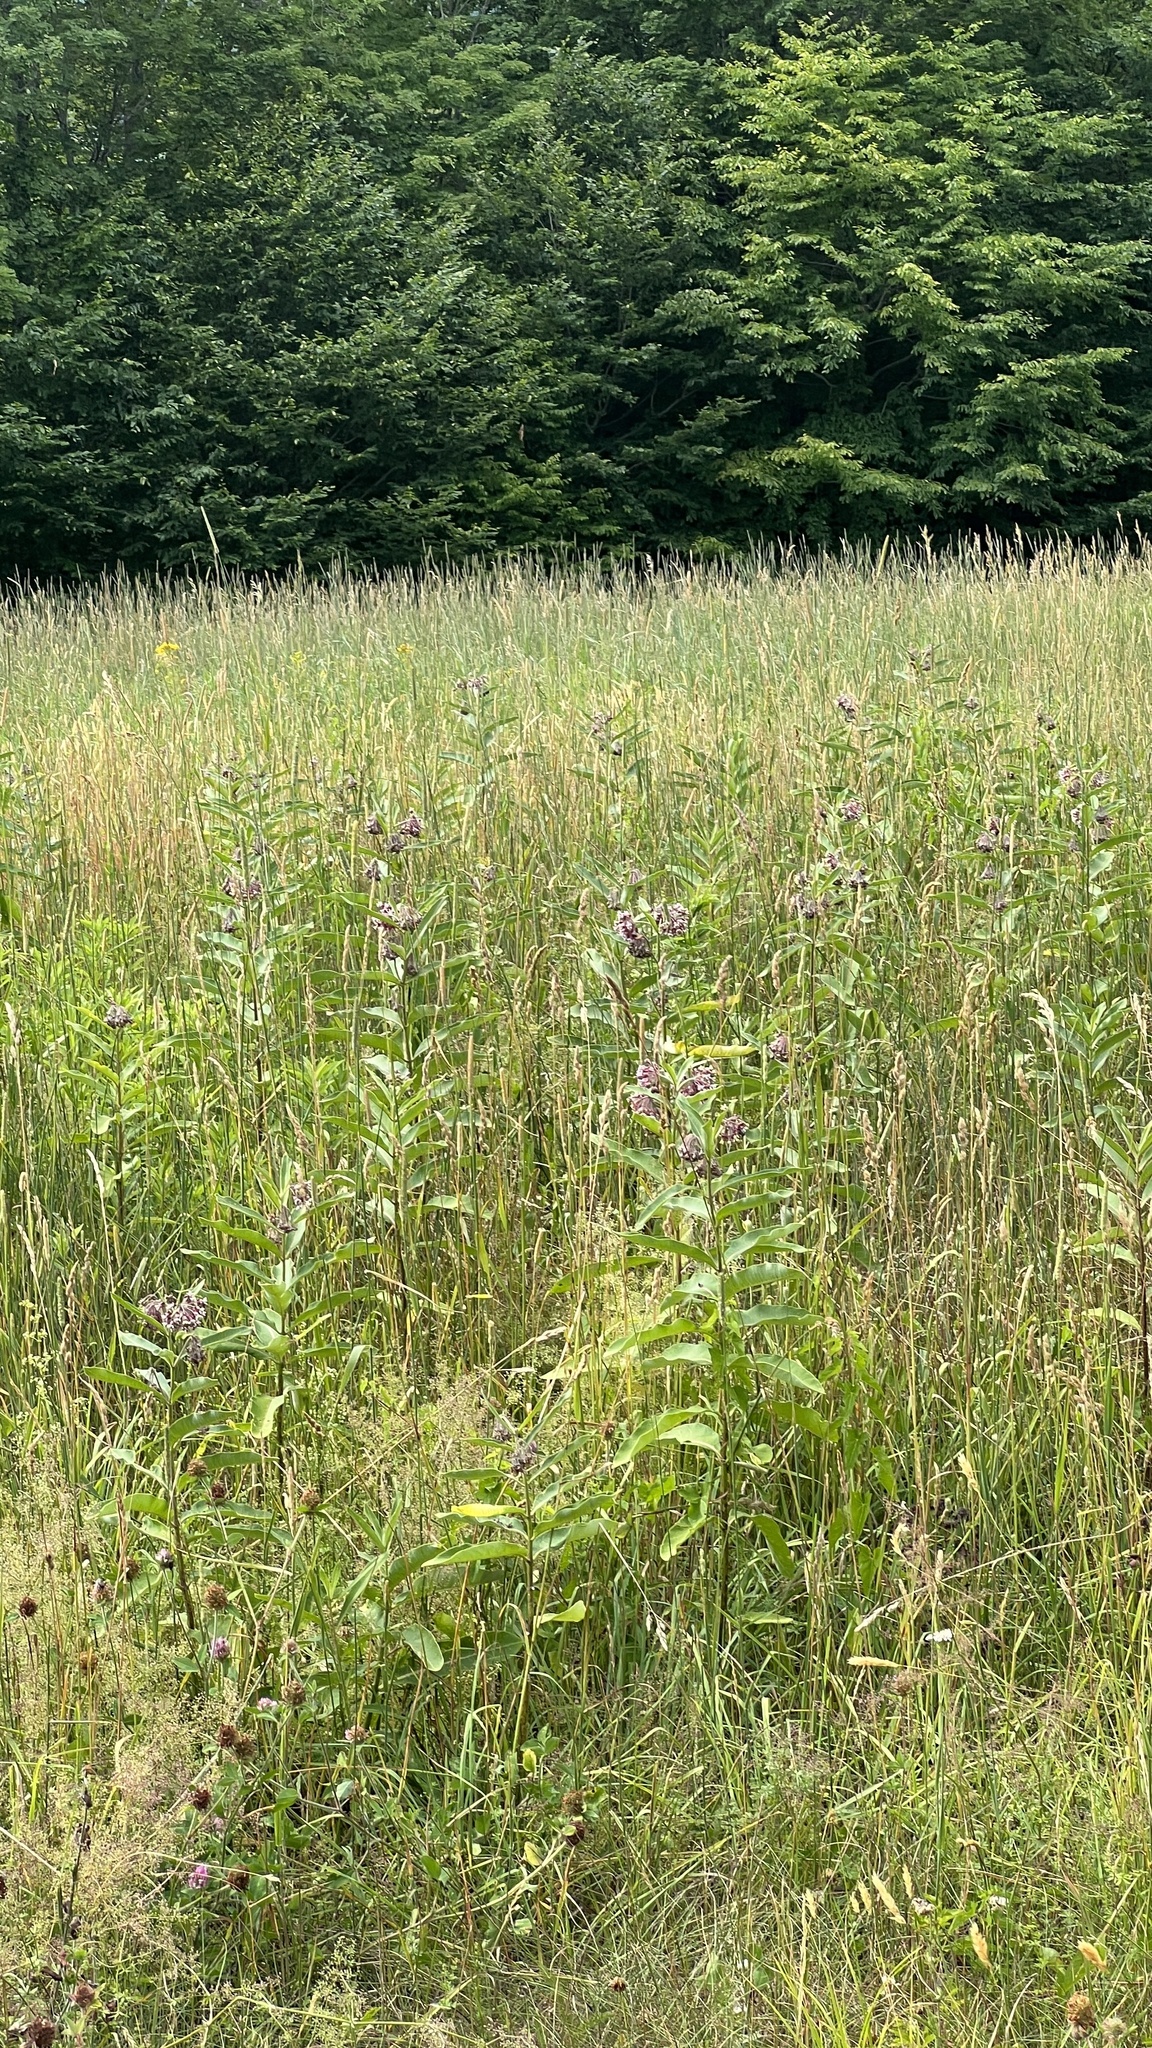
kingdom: Plantae
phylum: Tracheophyta
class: Magnoliopsida
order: Gentianales
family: Apocynaceae
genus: Asclepias
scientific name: Asclepias syriaca
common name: Common milkweed
